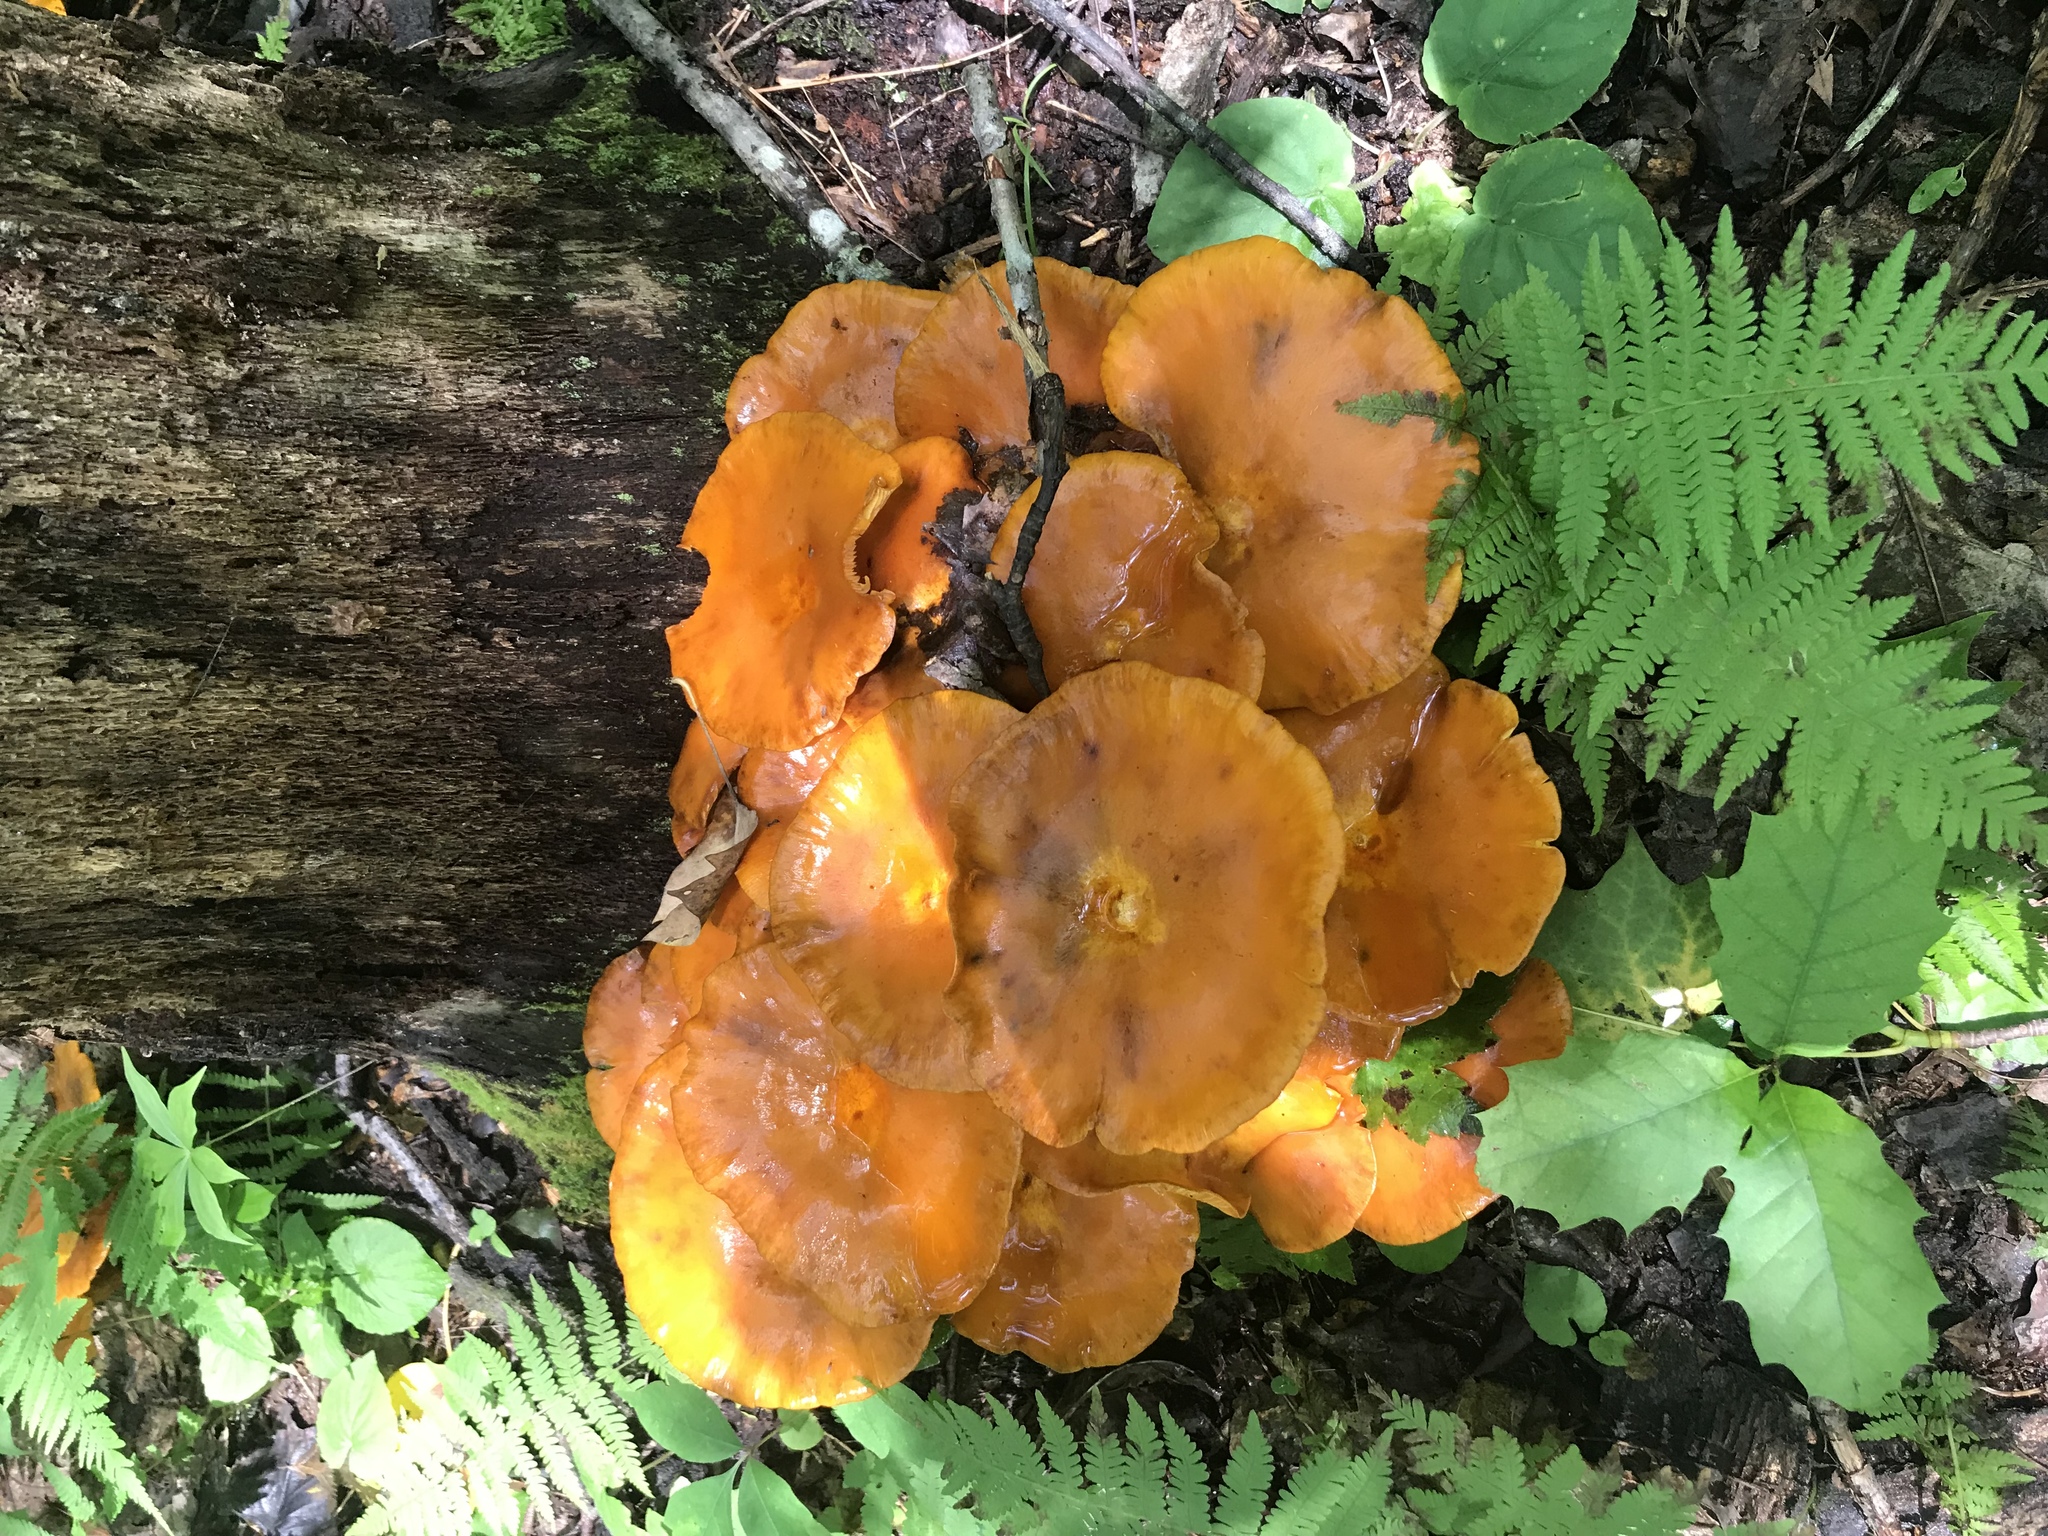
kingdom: Fungi
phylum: Basidiomycota
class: Agaricomycetes
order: Agaricales
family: Omphalotaceae
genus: Omphalotus
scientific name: Omphalotus illudens
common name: Jack o lantern
